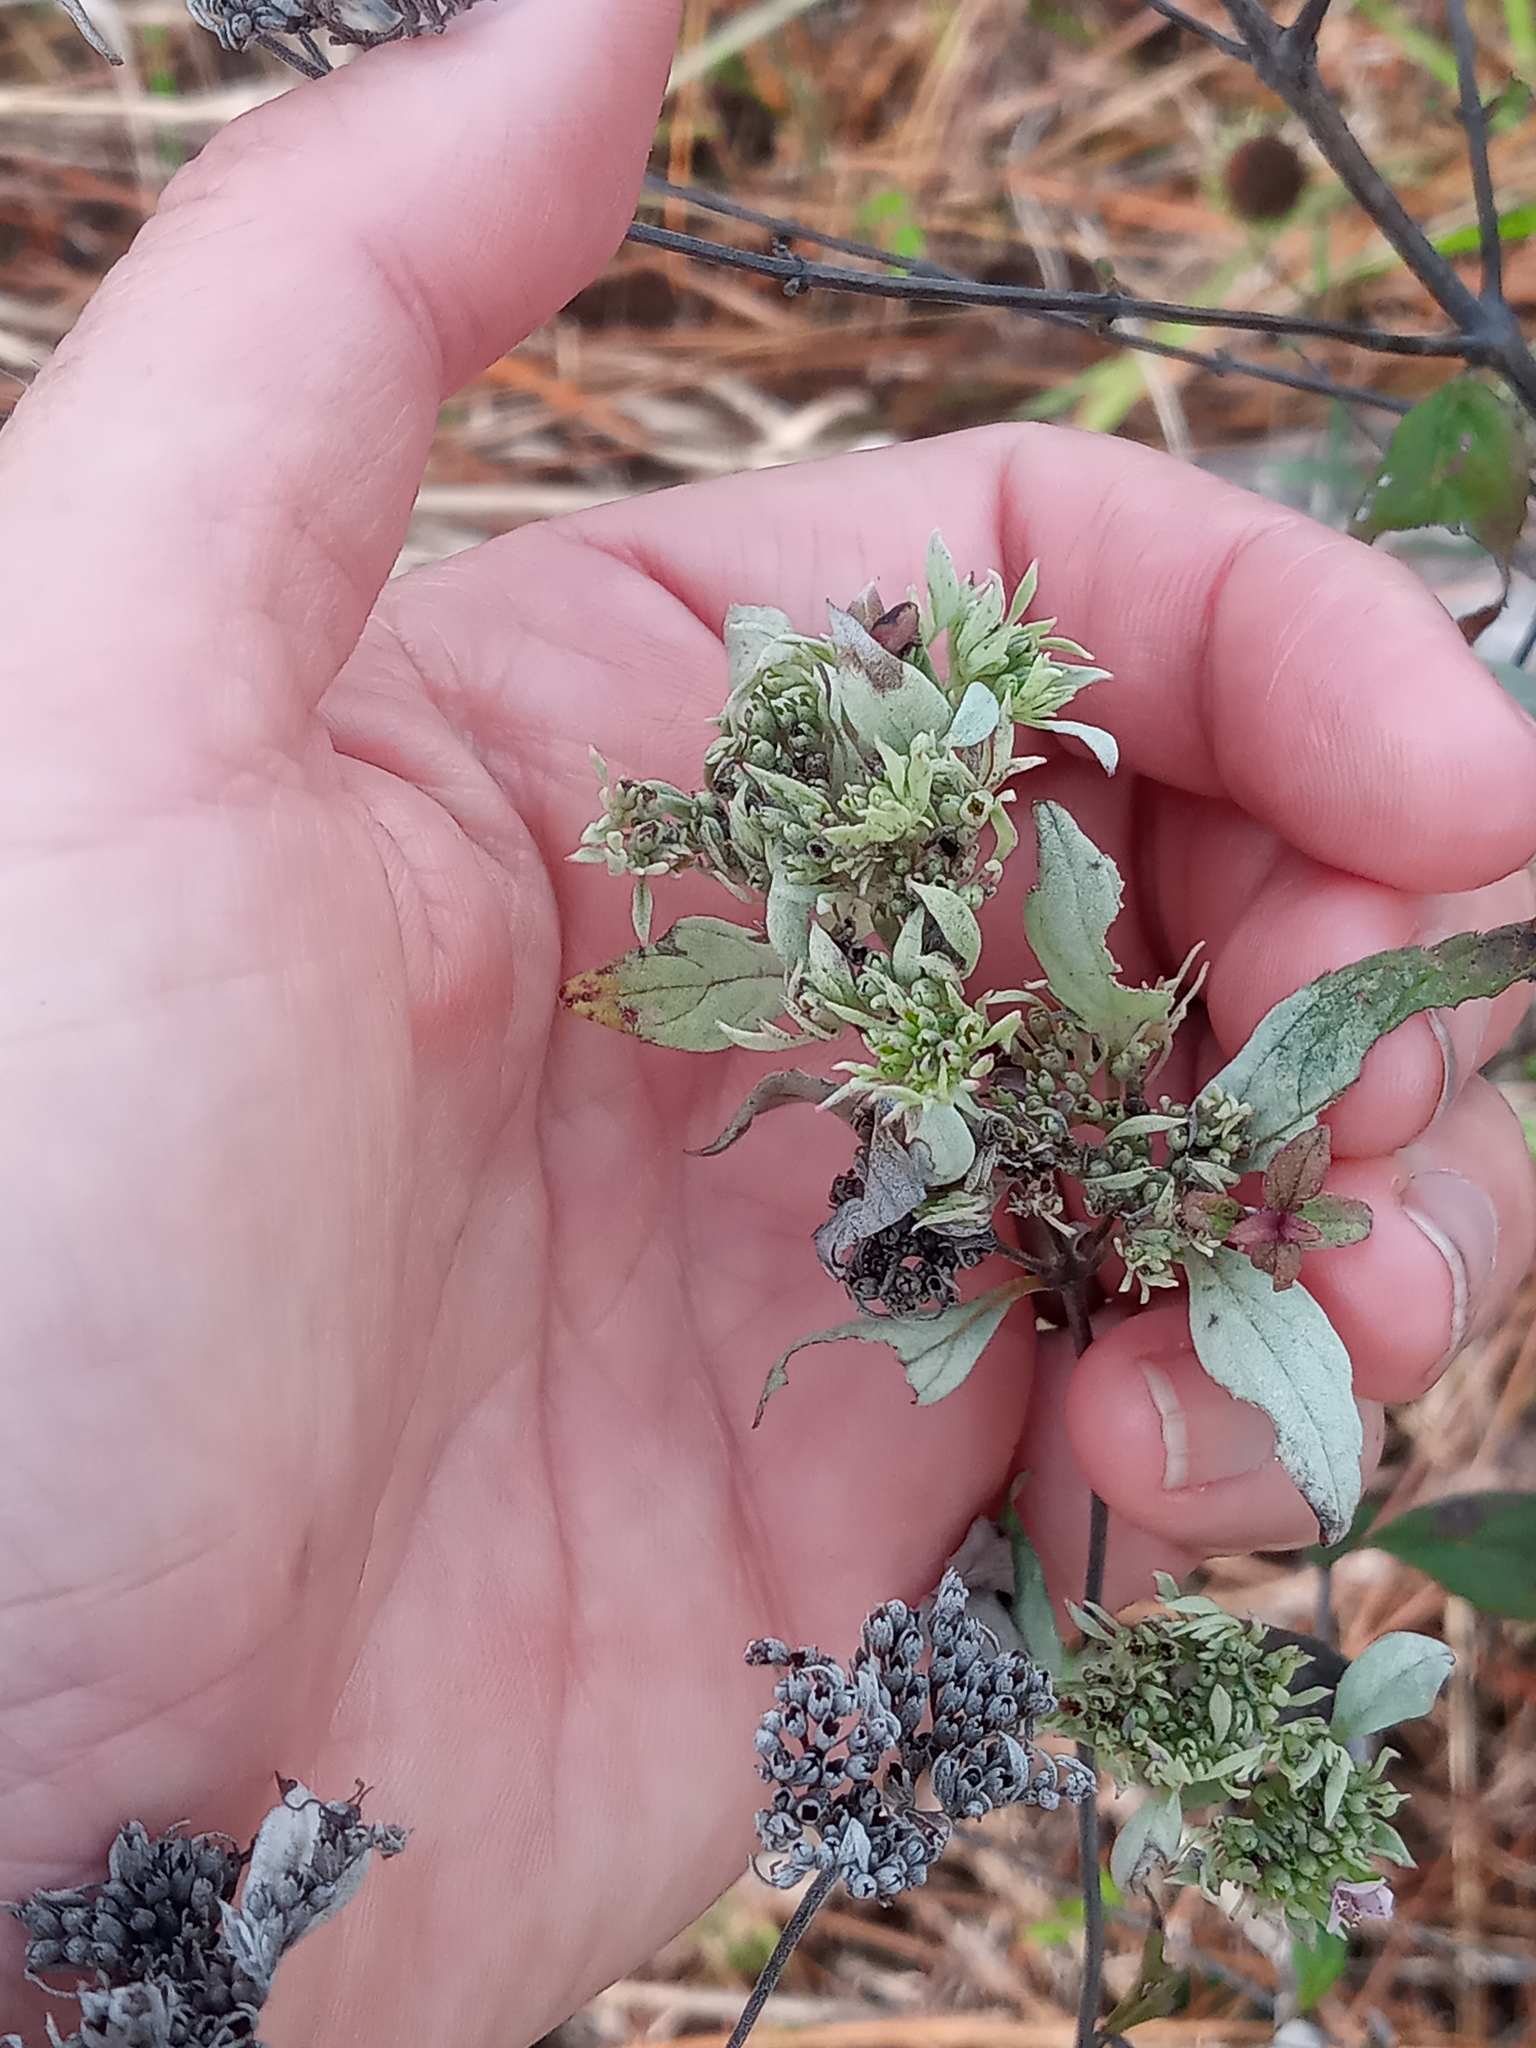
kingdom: Plantae
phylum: Tracheophyta
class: Magnoliopsida
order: Lamiales
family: Lamiaceae
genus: Pycnanthemum
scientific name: Pycnanthemum albescens
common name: White-leaf mountain-mint
